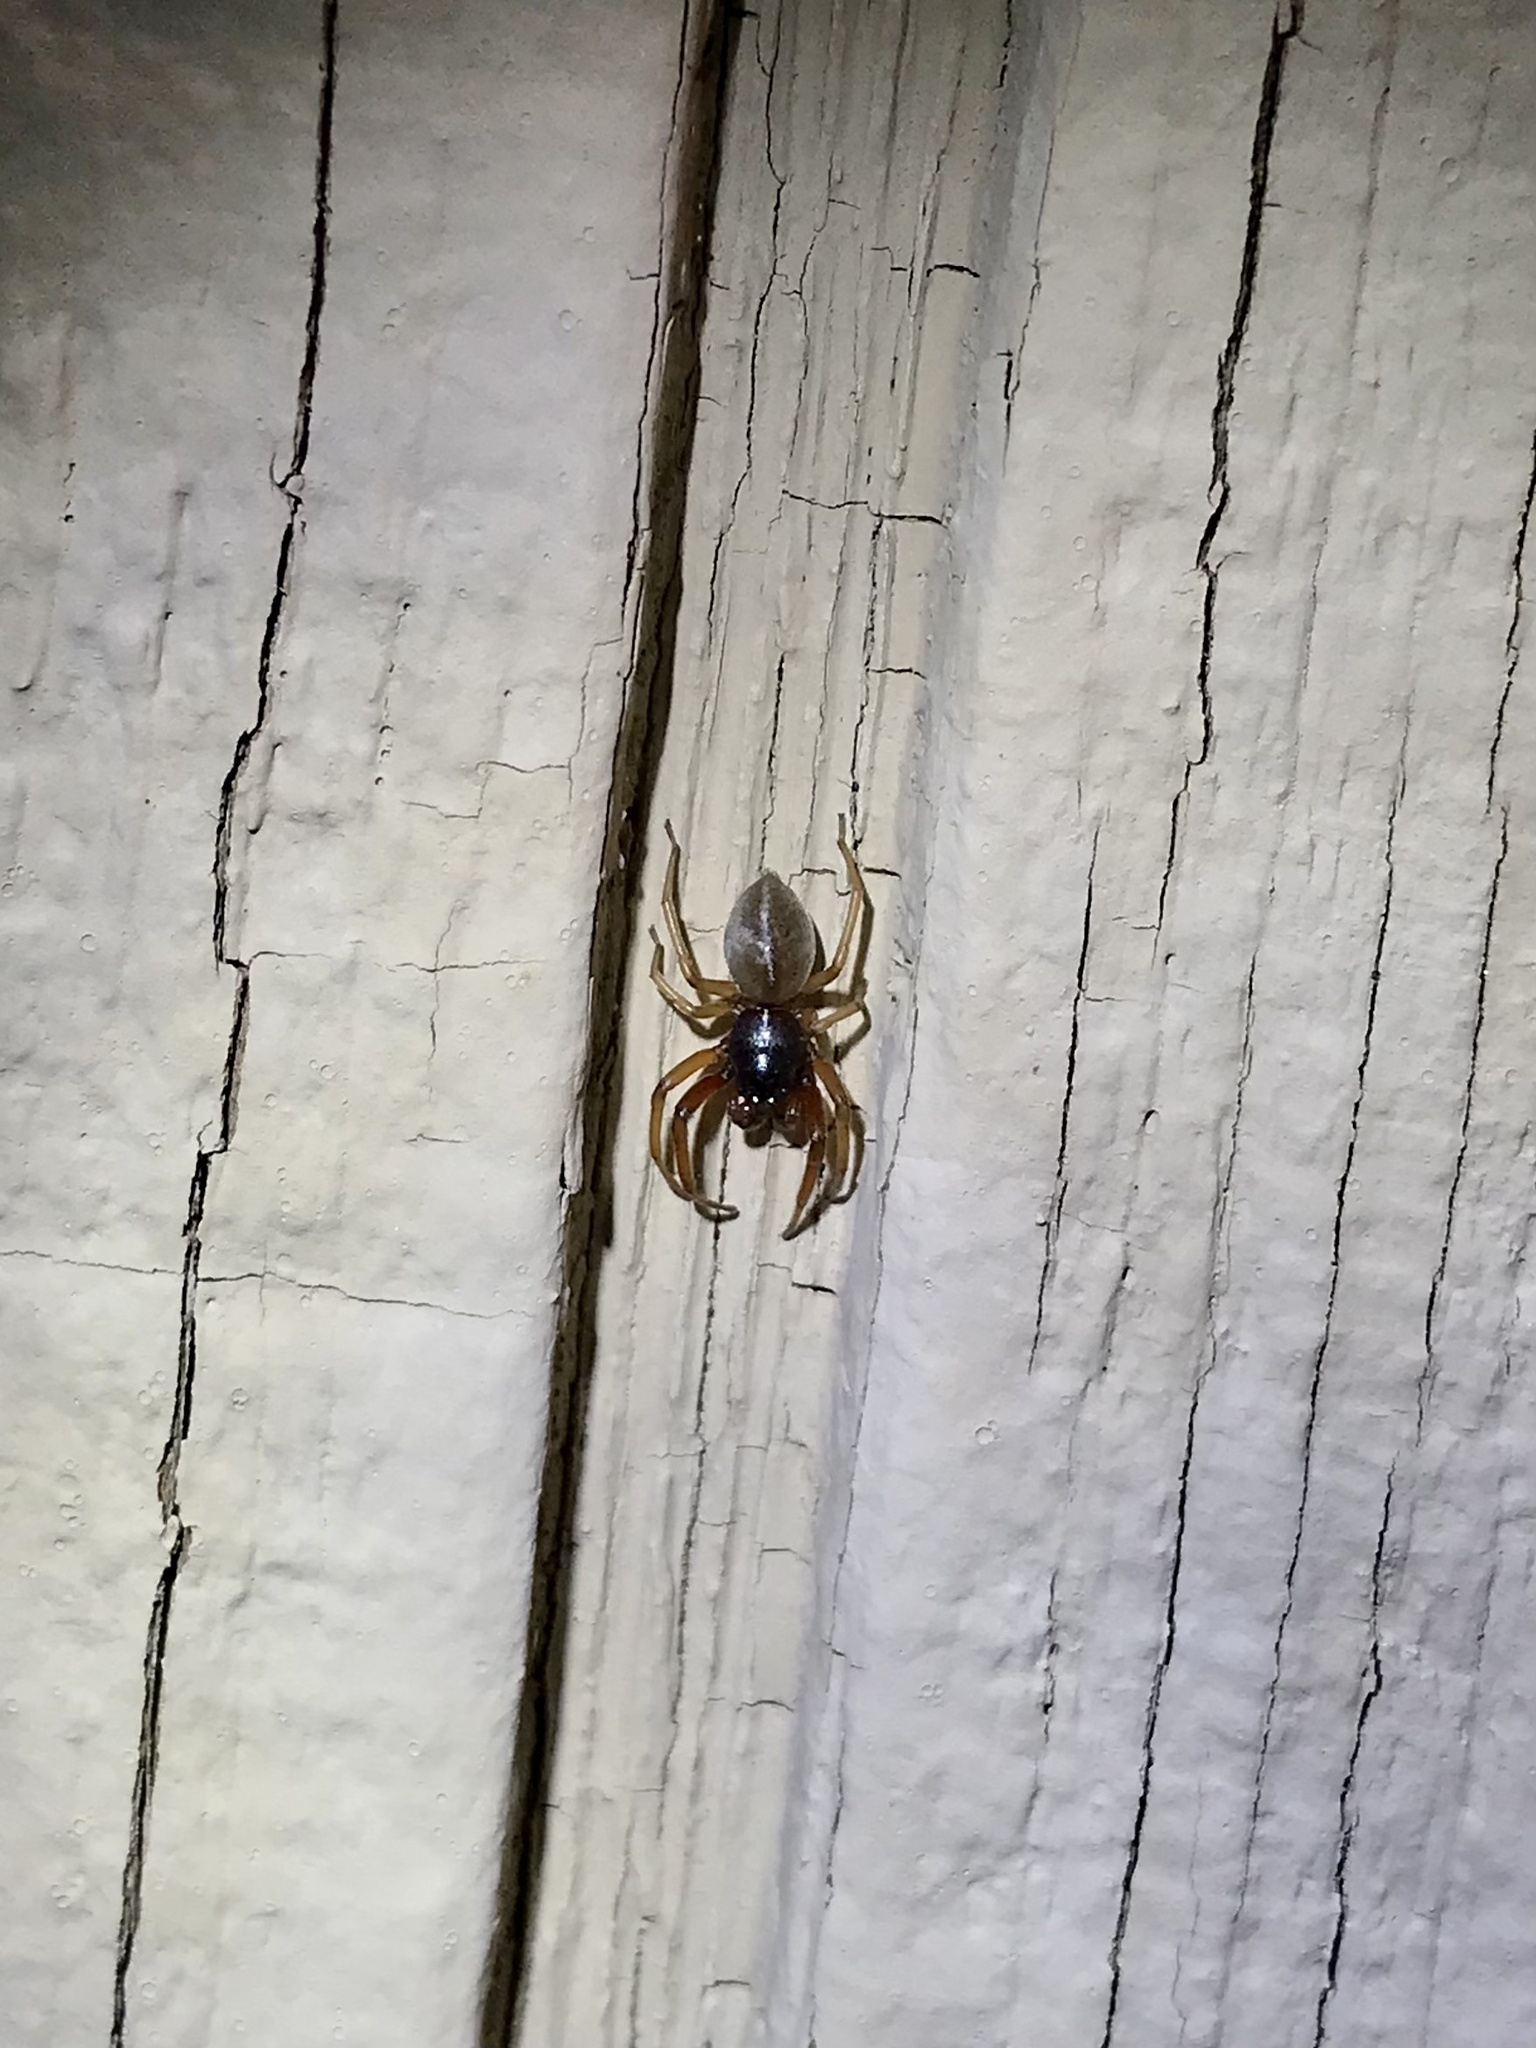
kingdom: Animalia
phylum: Arthropoda
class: Arachnida
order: Araneae
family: Trachelidae
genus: Trachelas
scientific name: Trachelas tranquillus
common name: Broad-faced sac spider
